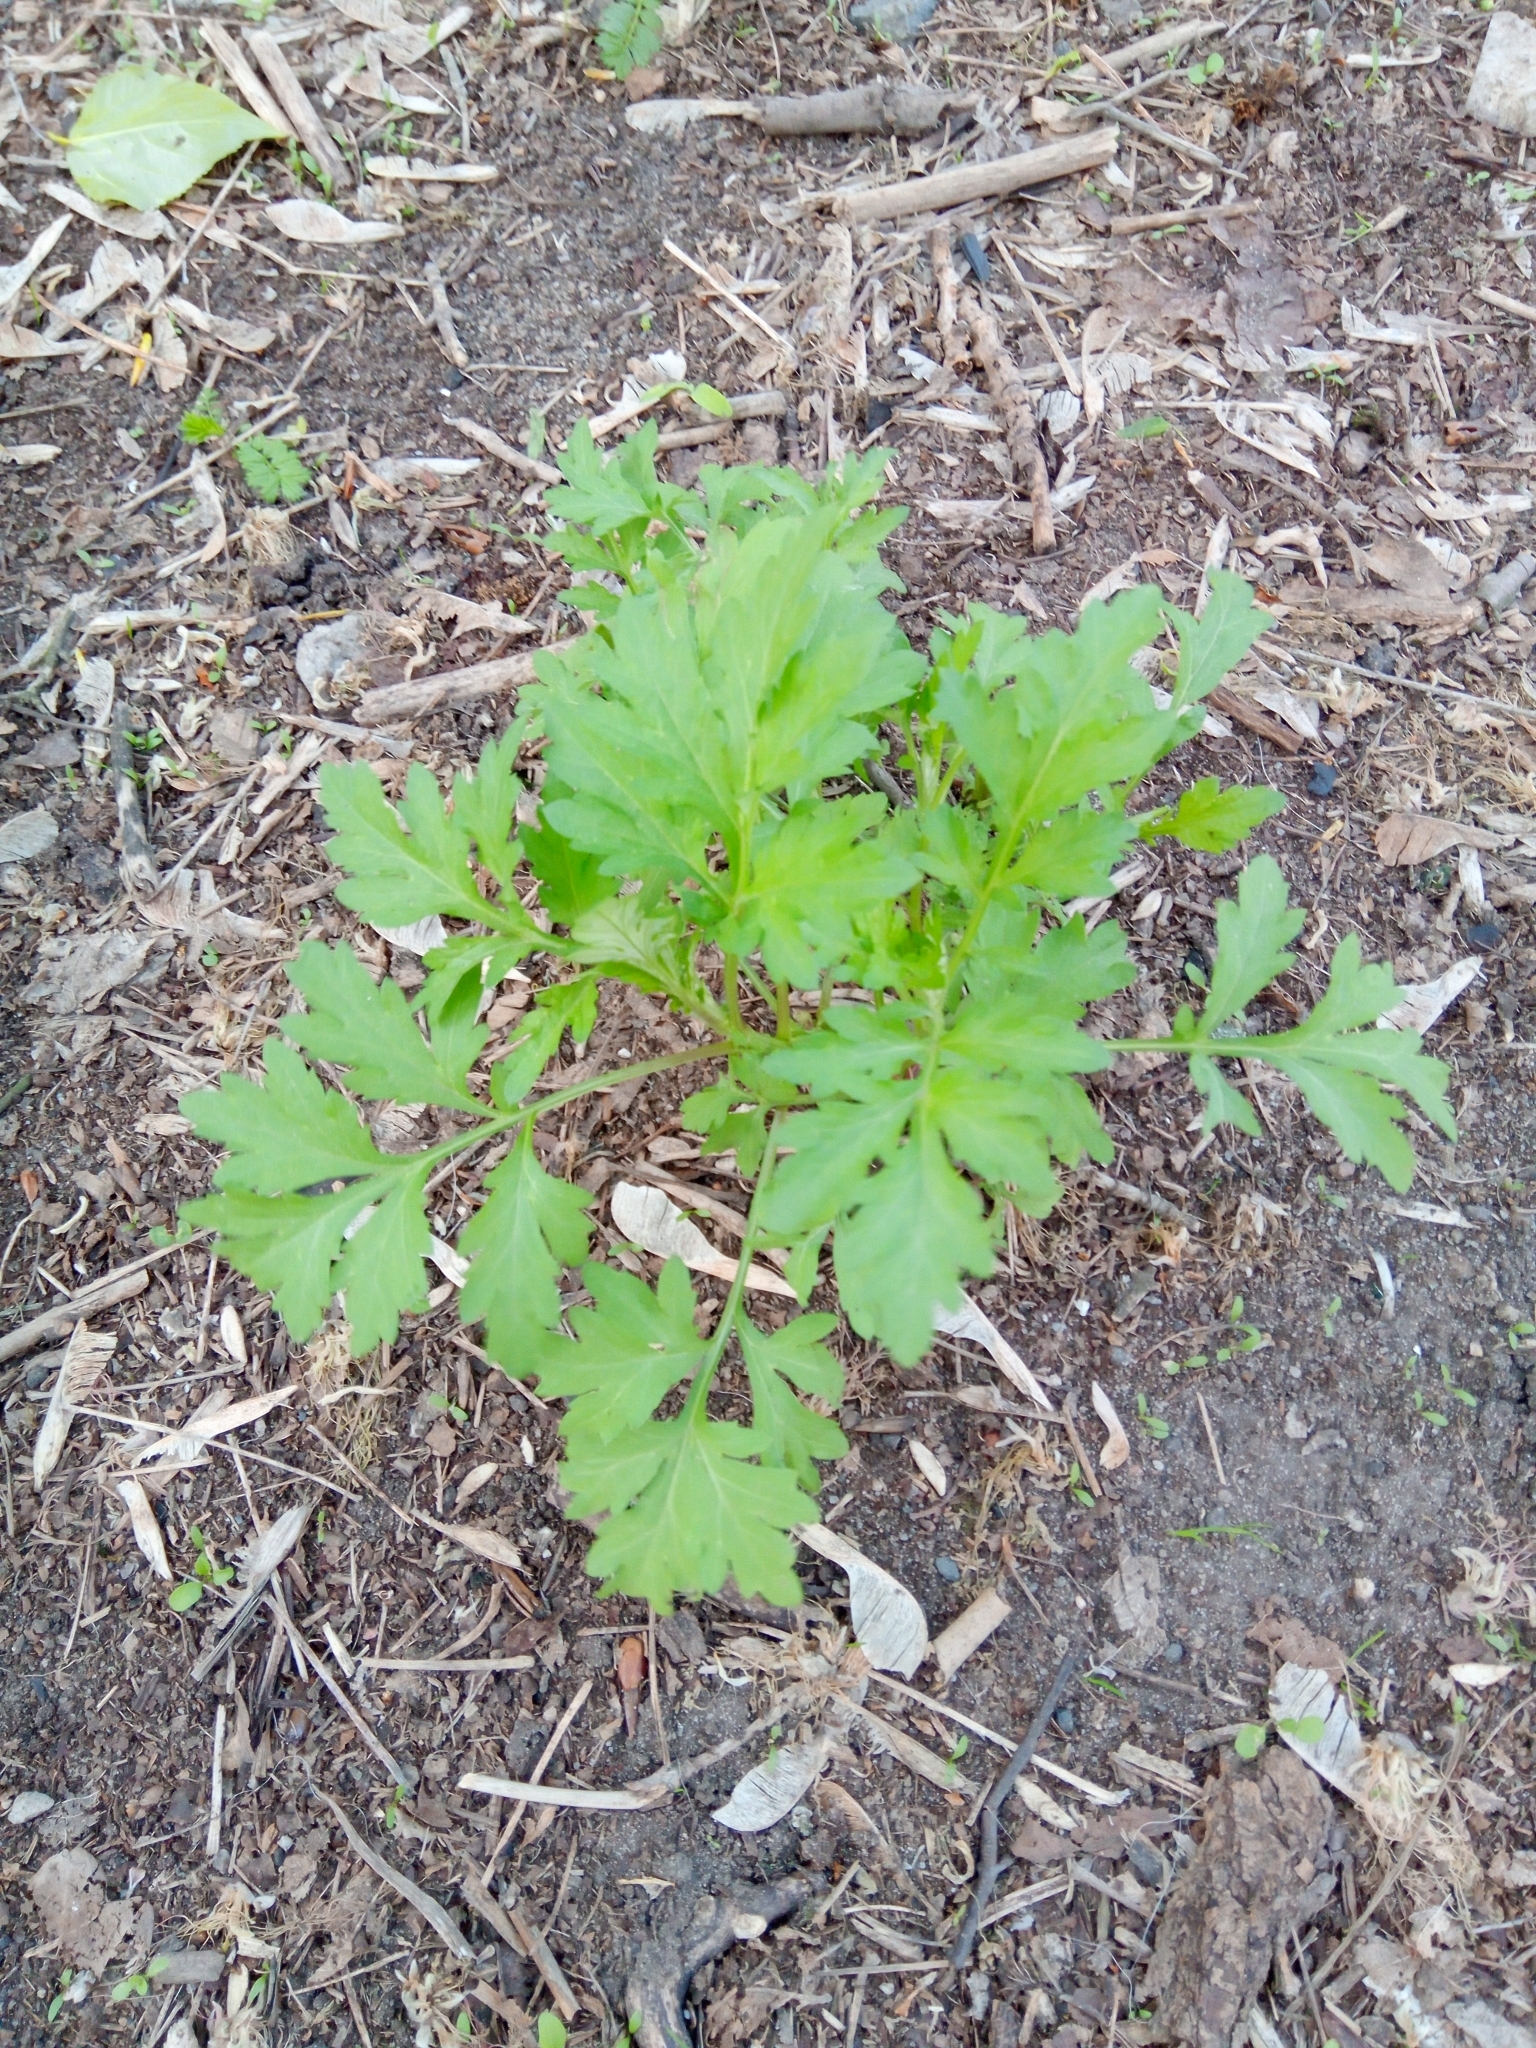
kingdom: Plantae
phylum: Tracheophyta
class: Magnoliopsida
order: Asterales
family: Asteraceae
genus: Artemisia
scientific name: Artemisia vulgaris
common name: Mugwort
